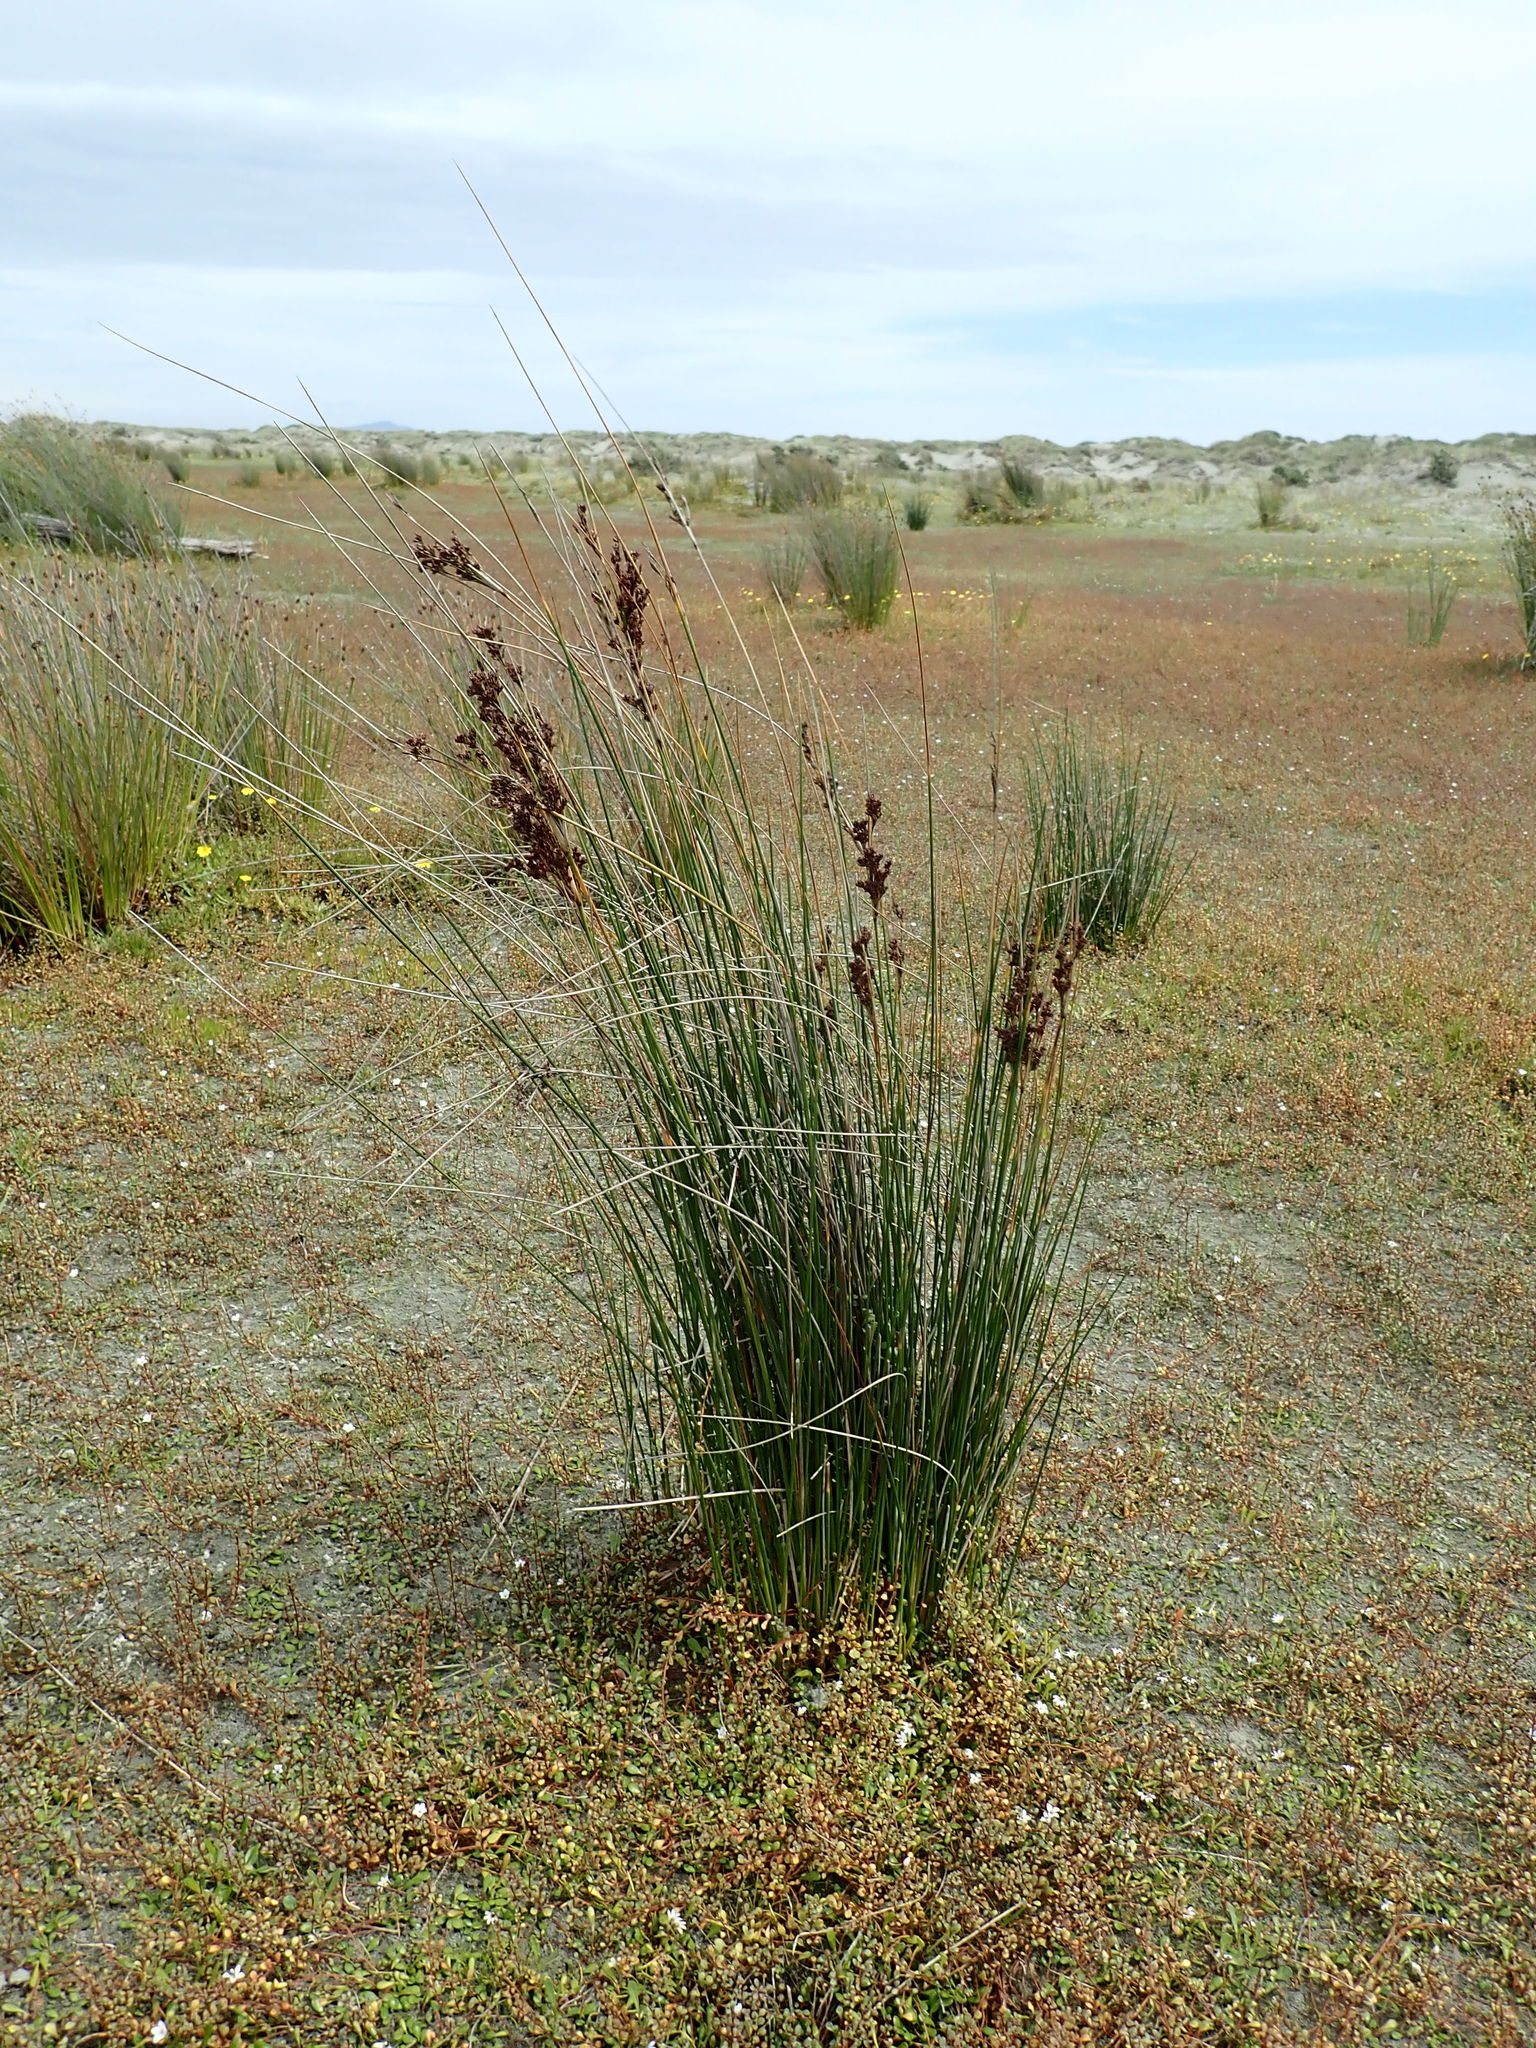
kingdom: Plantae
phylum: Tracheophyta
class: Liliopsida
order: Poales
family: Juncaceae
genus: Juncus
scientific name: Juncus kraussii
